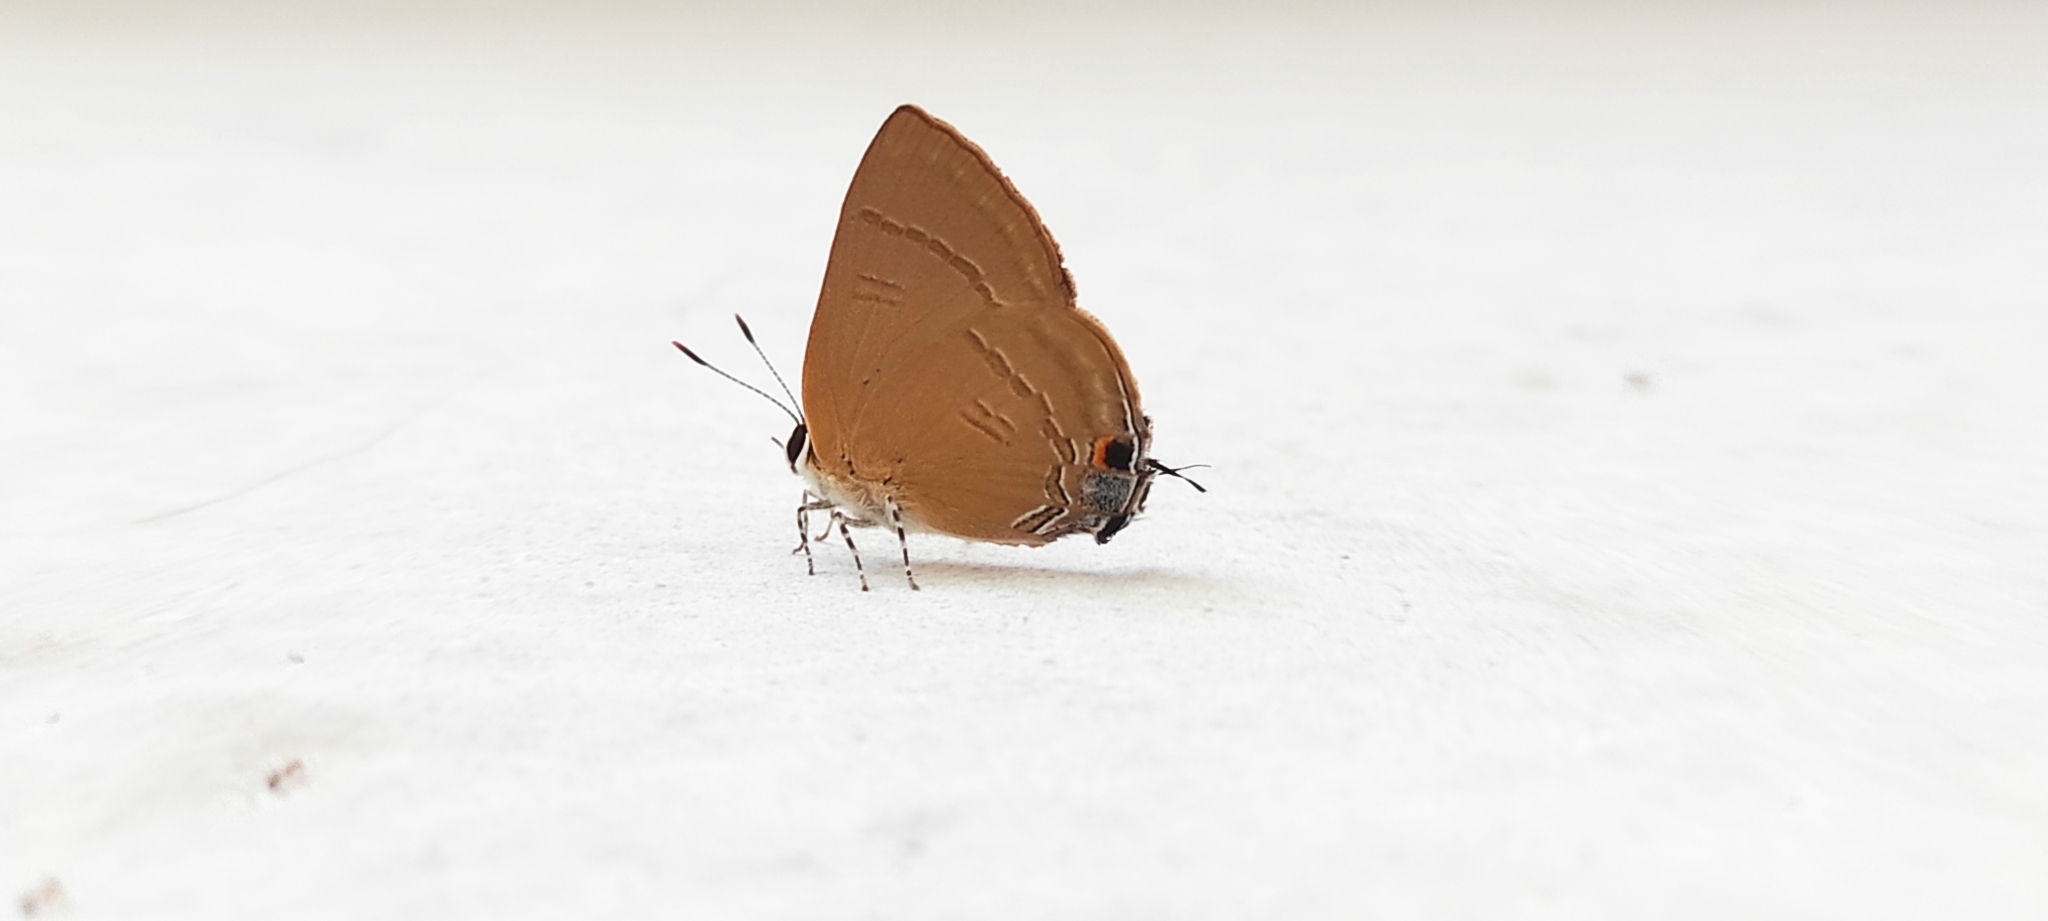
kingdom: Animalia
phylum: Arthropoda
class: Insecta
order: Lepidoptera
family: Lycaenidae
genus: Rapala
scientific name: Rapala manea
